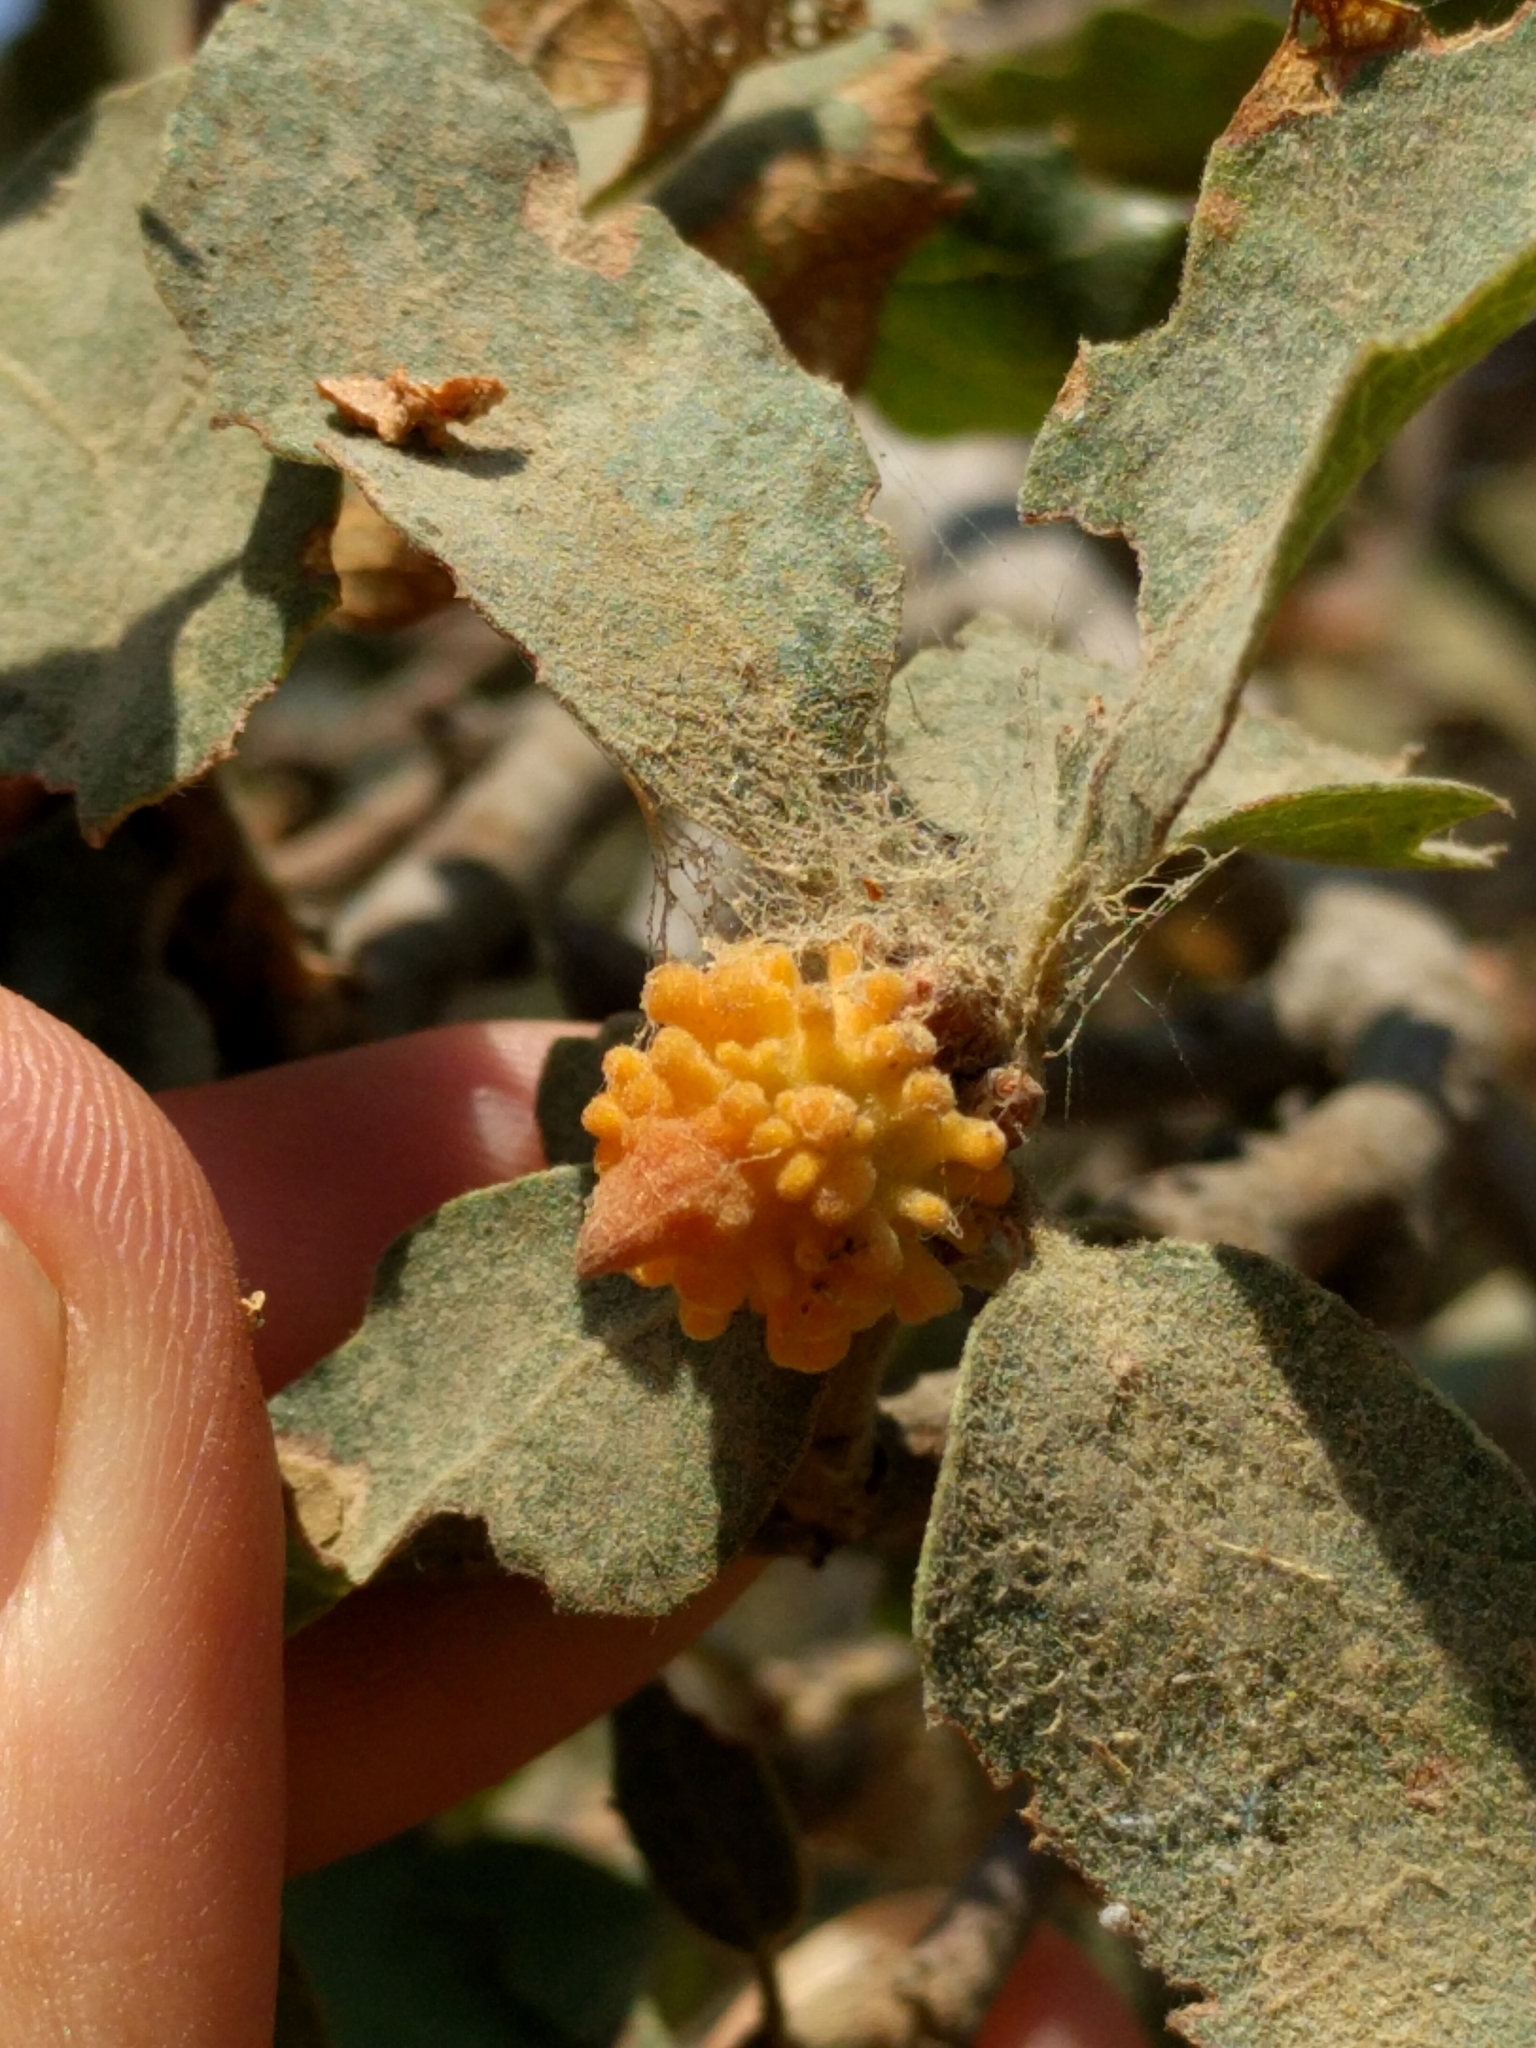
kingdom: Animalia
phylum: Arthropoda
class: Insecta
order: Hymenoptera
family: Cynipidae
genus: Burnettweldia
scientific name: Burnettweldia
